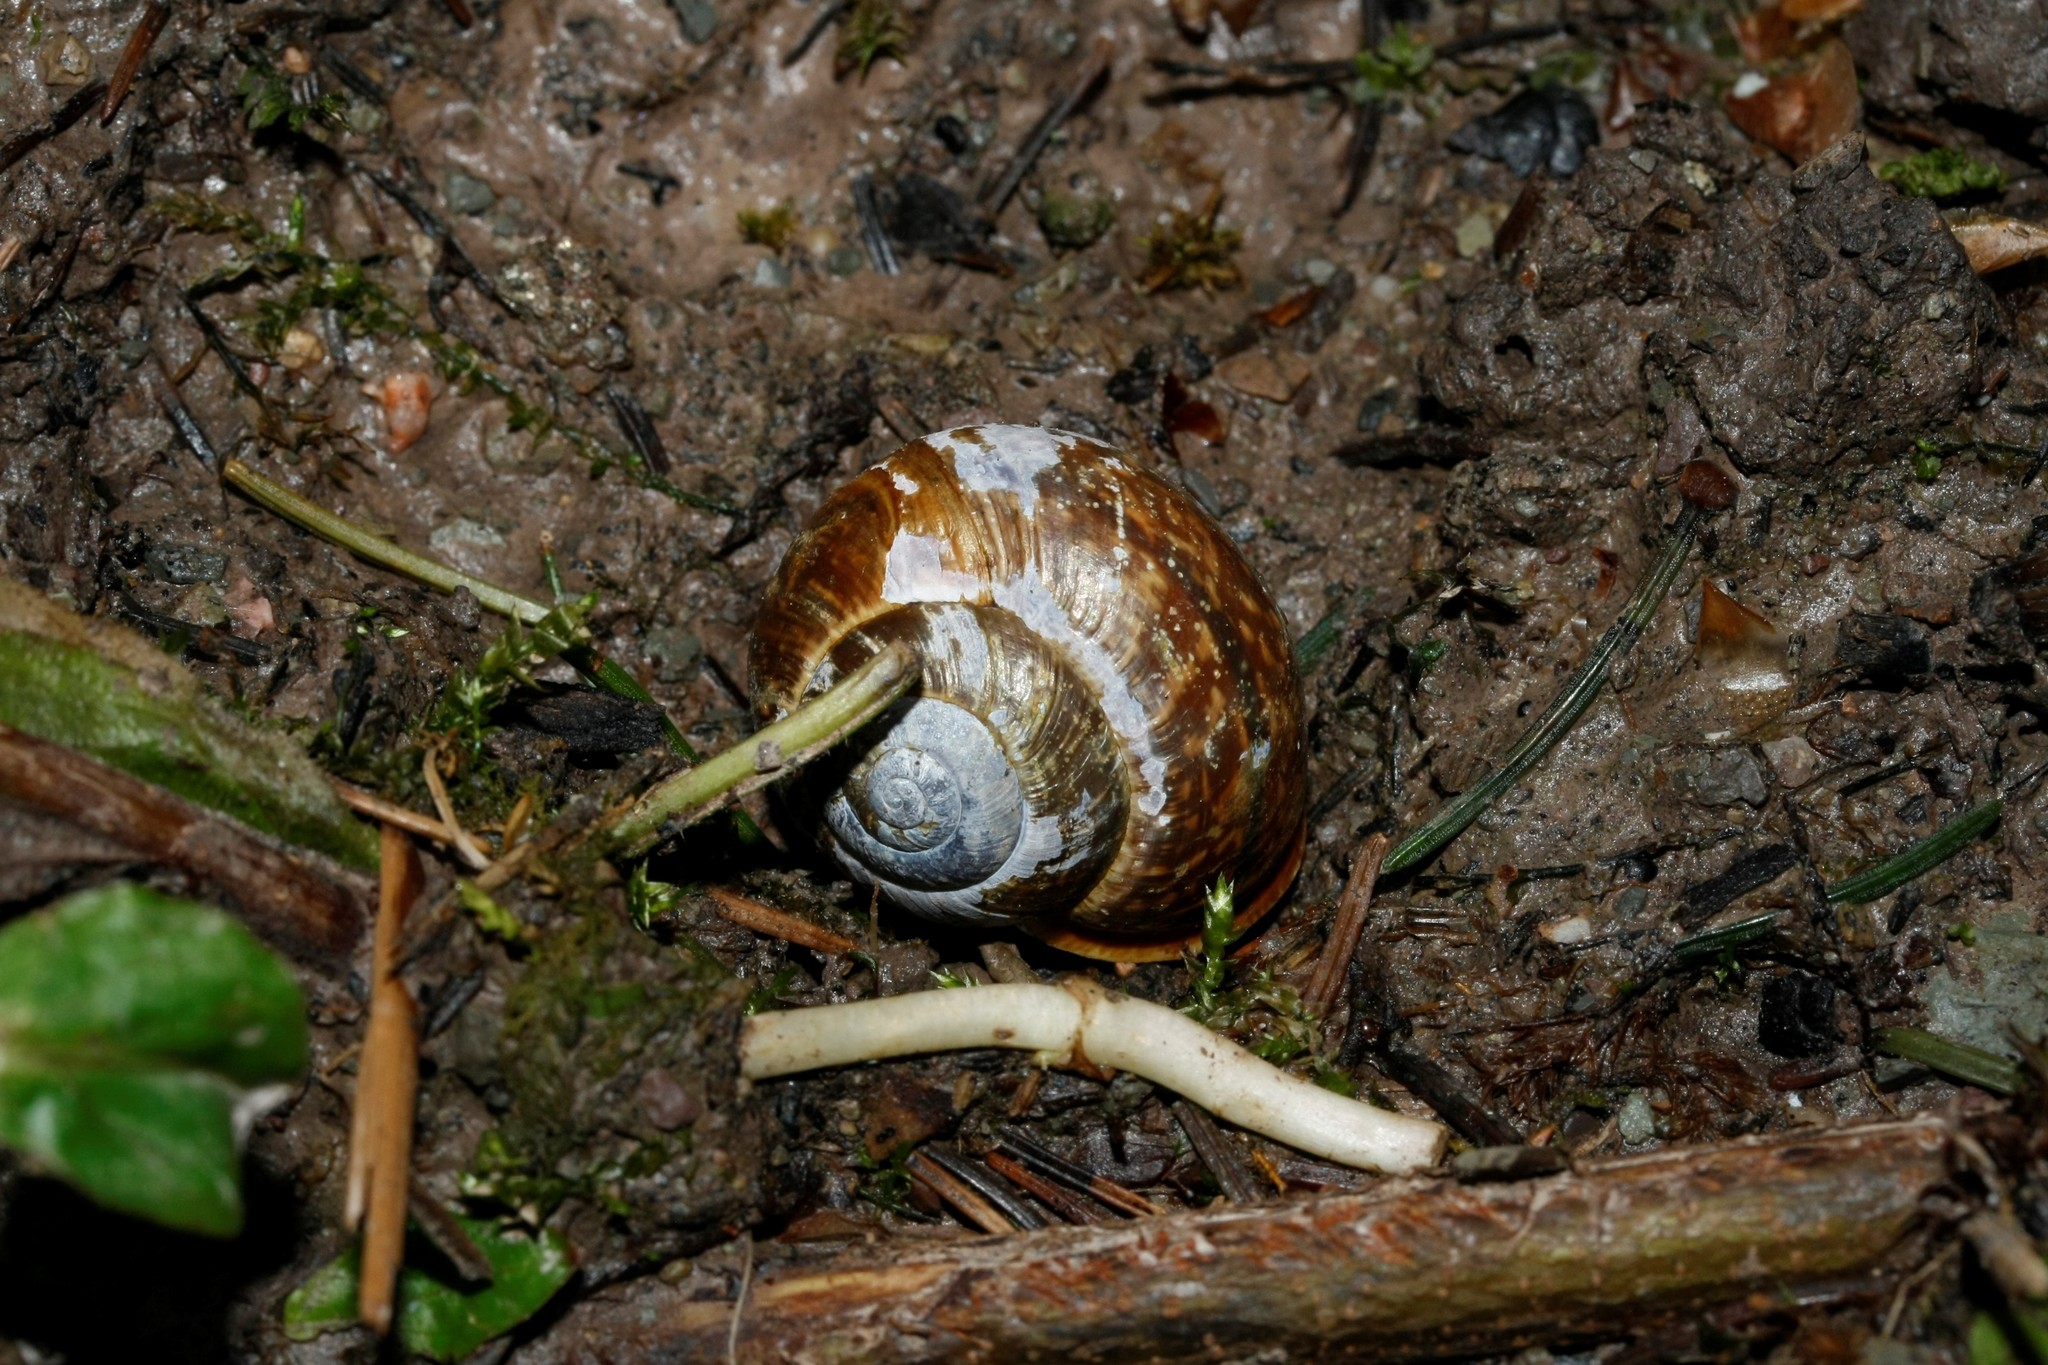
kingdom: Animalia
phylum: Mollusca
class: Gastropoda
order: Stylommatophora
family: Helicidae
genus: Arianta
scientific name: Arianta arbustorum
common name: Copse snail
